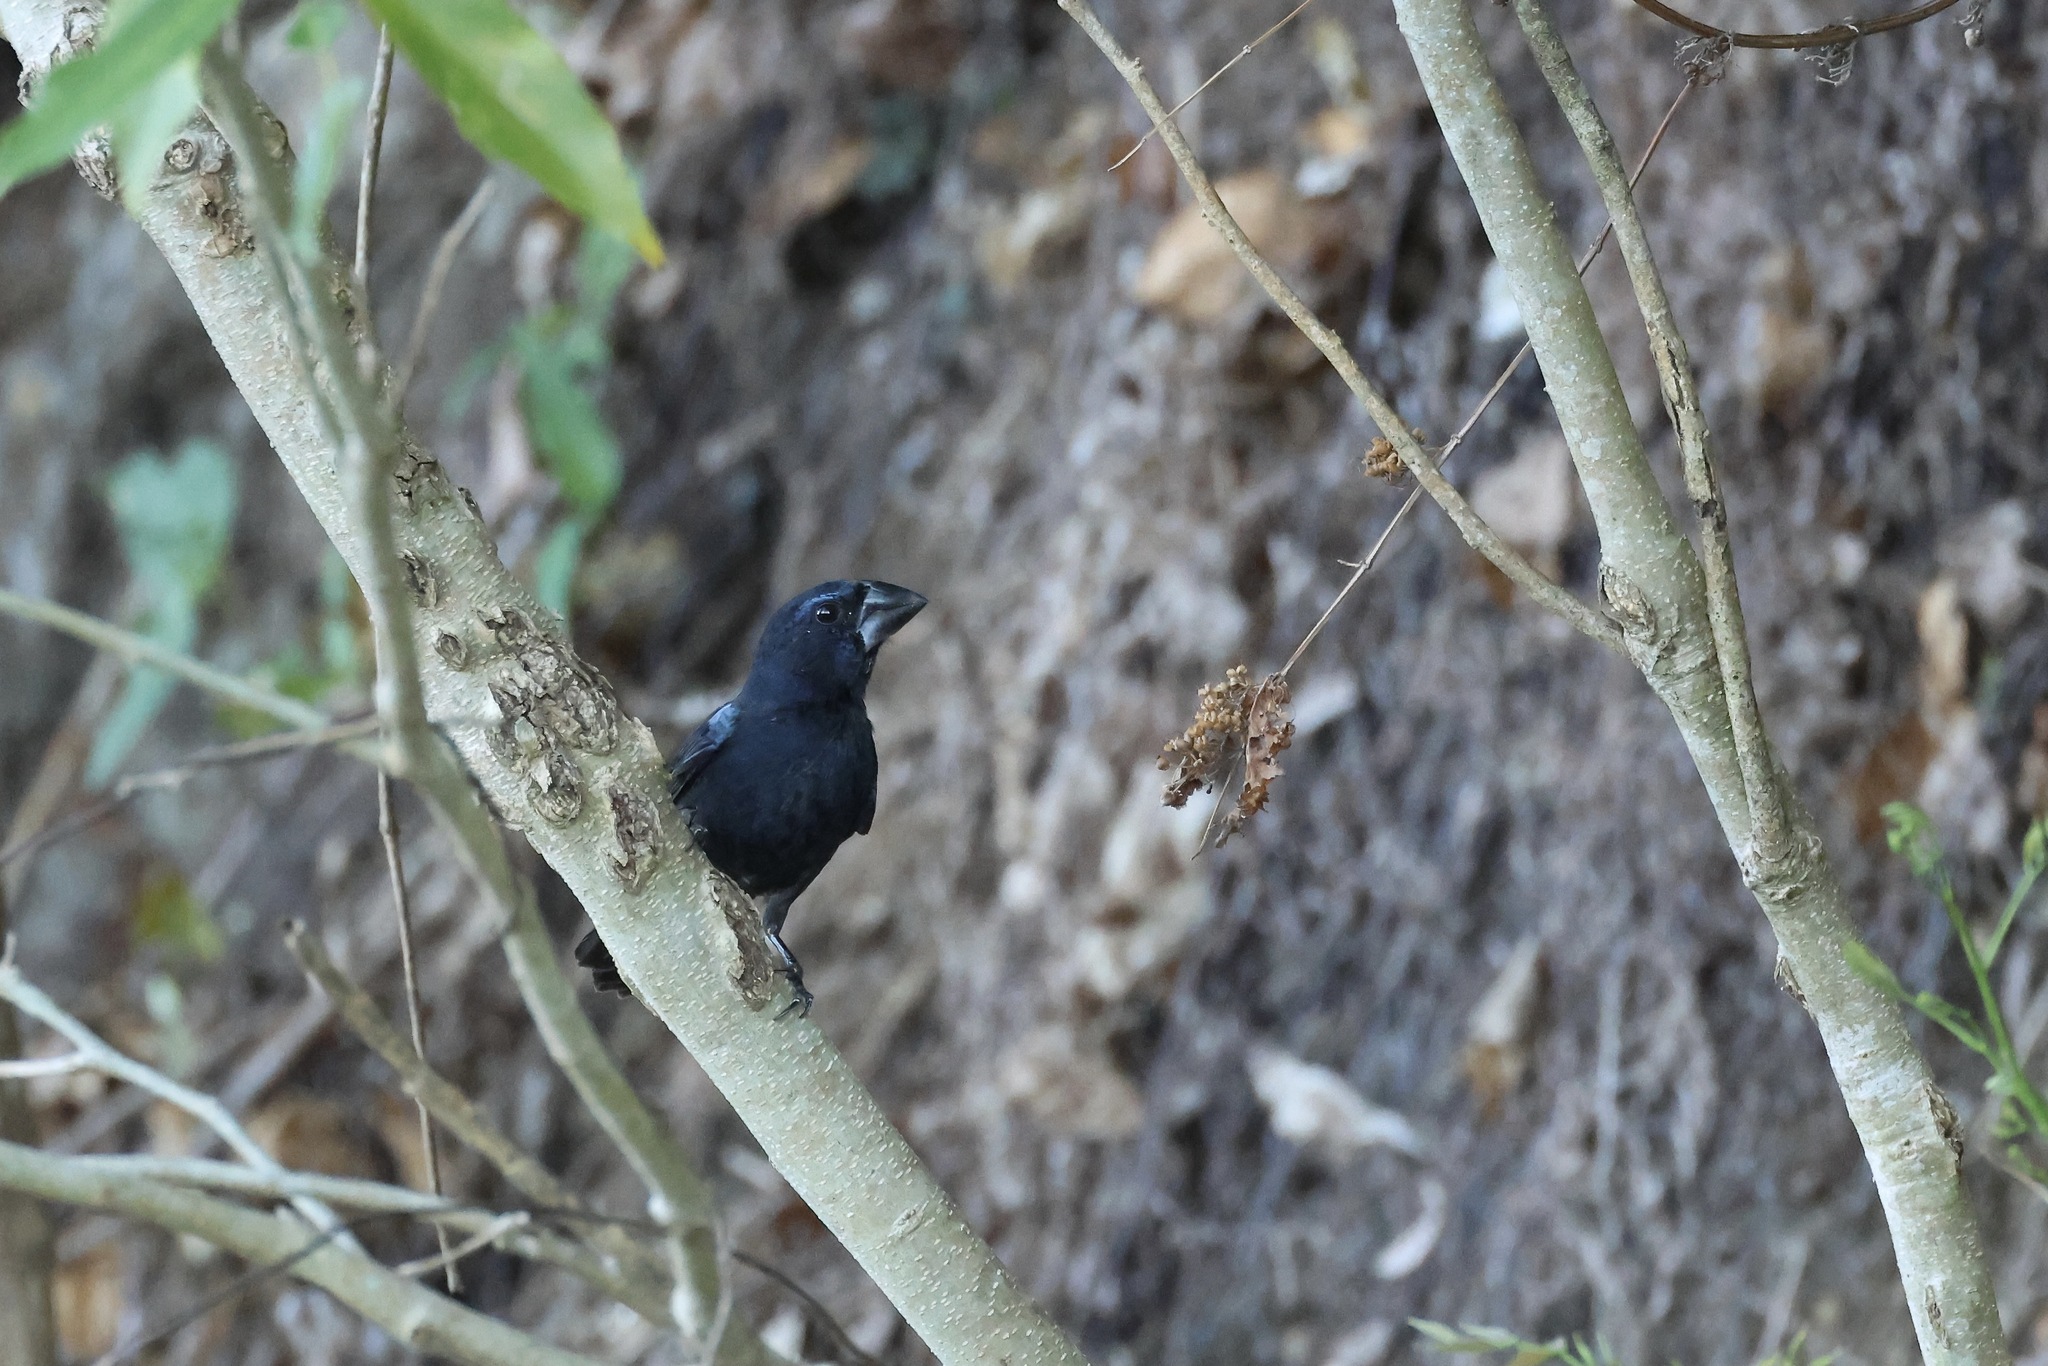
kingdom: Animalia
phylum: Chordata
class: Aves
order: Passeriformes
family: Cardinalidae
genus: Cyanocompsa
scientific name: Cyanocompsa cyanoides
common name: Blue-black grosbeak
